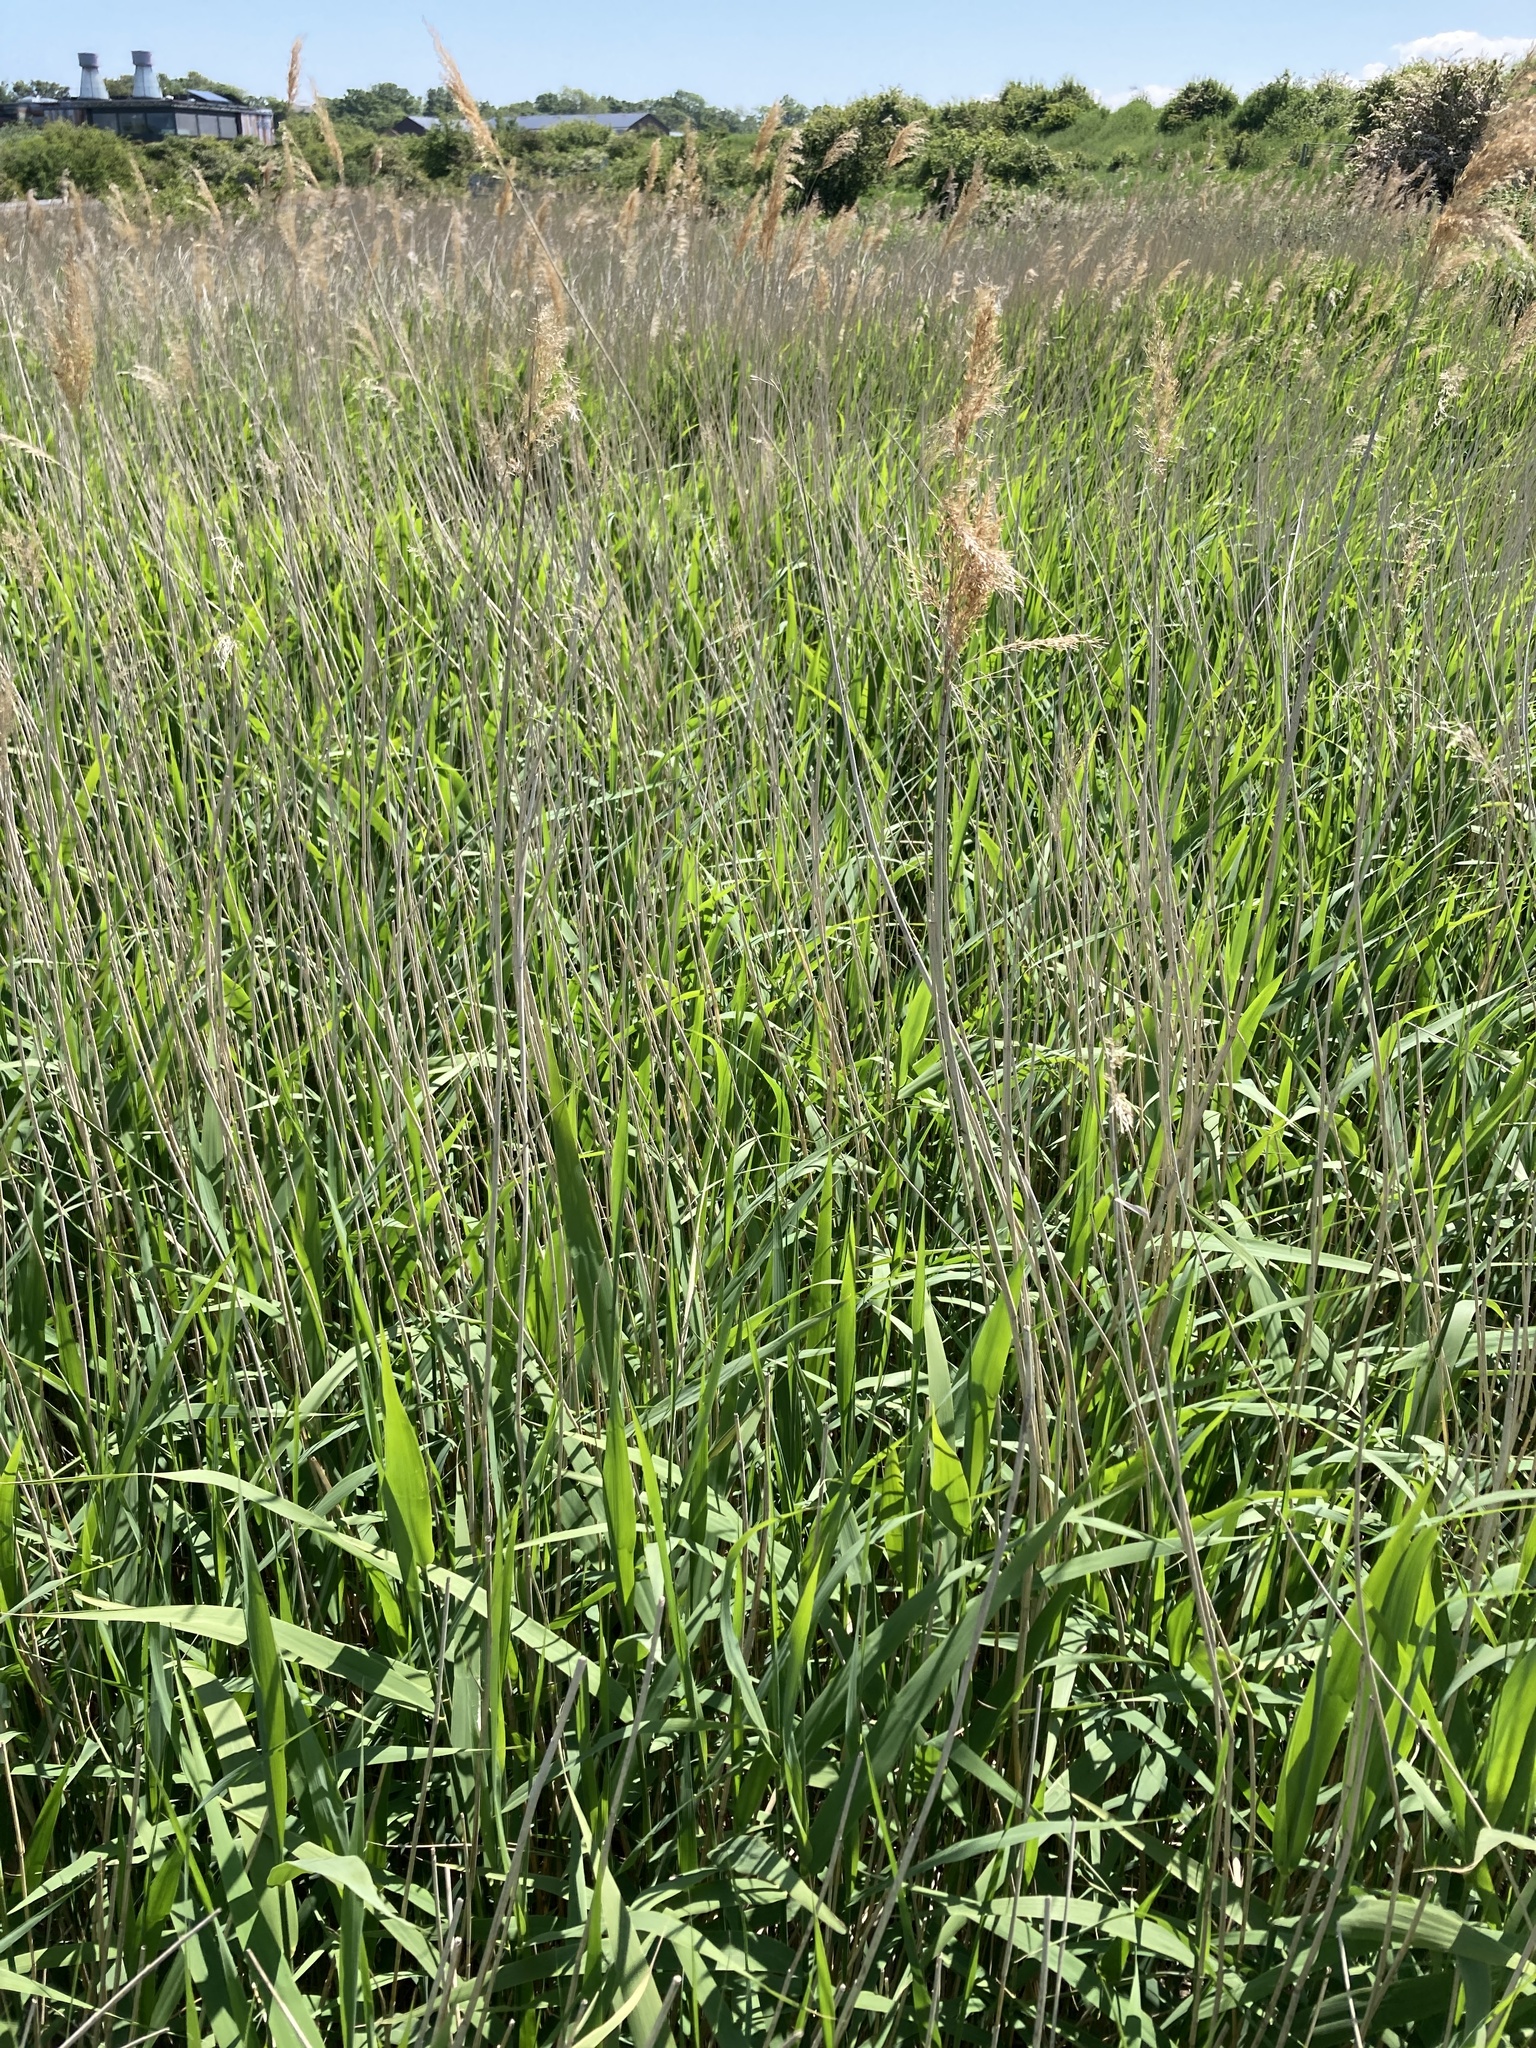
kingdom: Plantae
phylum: Tracheophyta
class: Liliopsida
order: Poales
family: Poaceae
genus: Phragmites
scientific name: Phragmites australis
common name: Common reed
